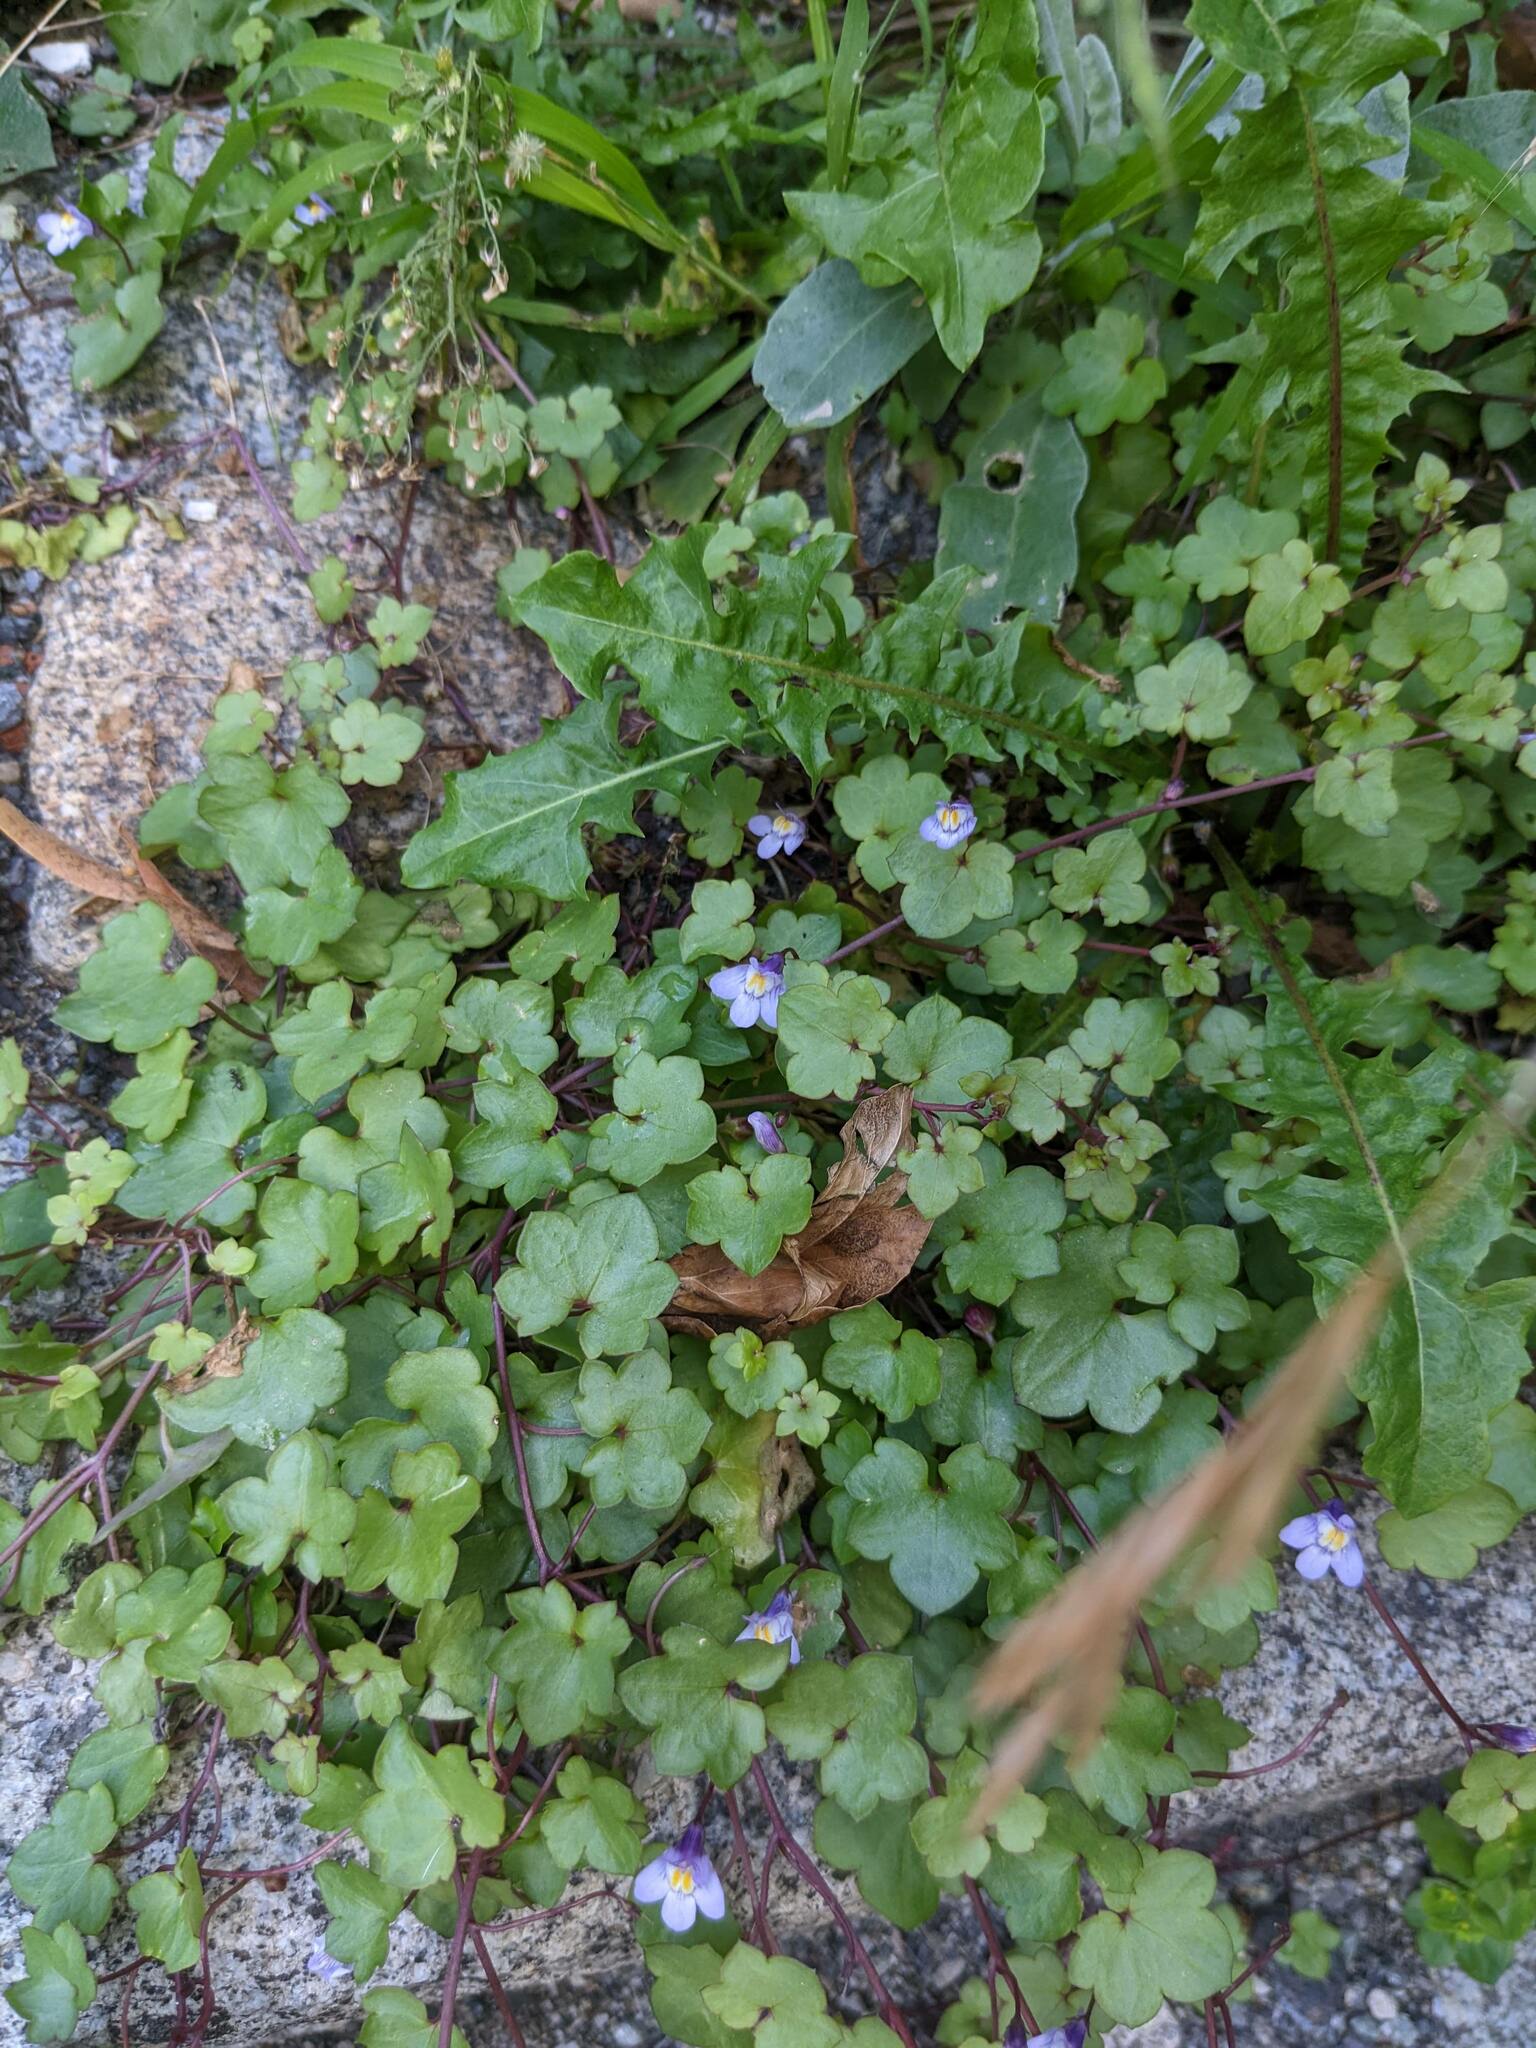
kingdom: Plantae
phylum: Tracheophyta
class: Magnoliopsida
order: Lamiales
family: Plantaginaceae
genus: Cymbalaria
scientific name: Cymbalaria muralis
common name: Ivy-leaved toadflax
